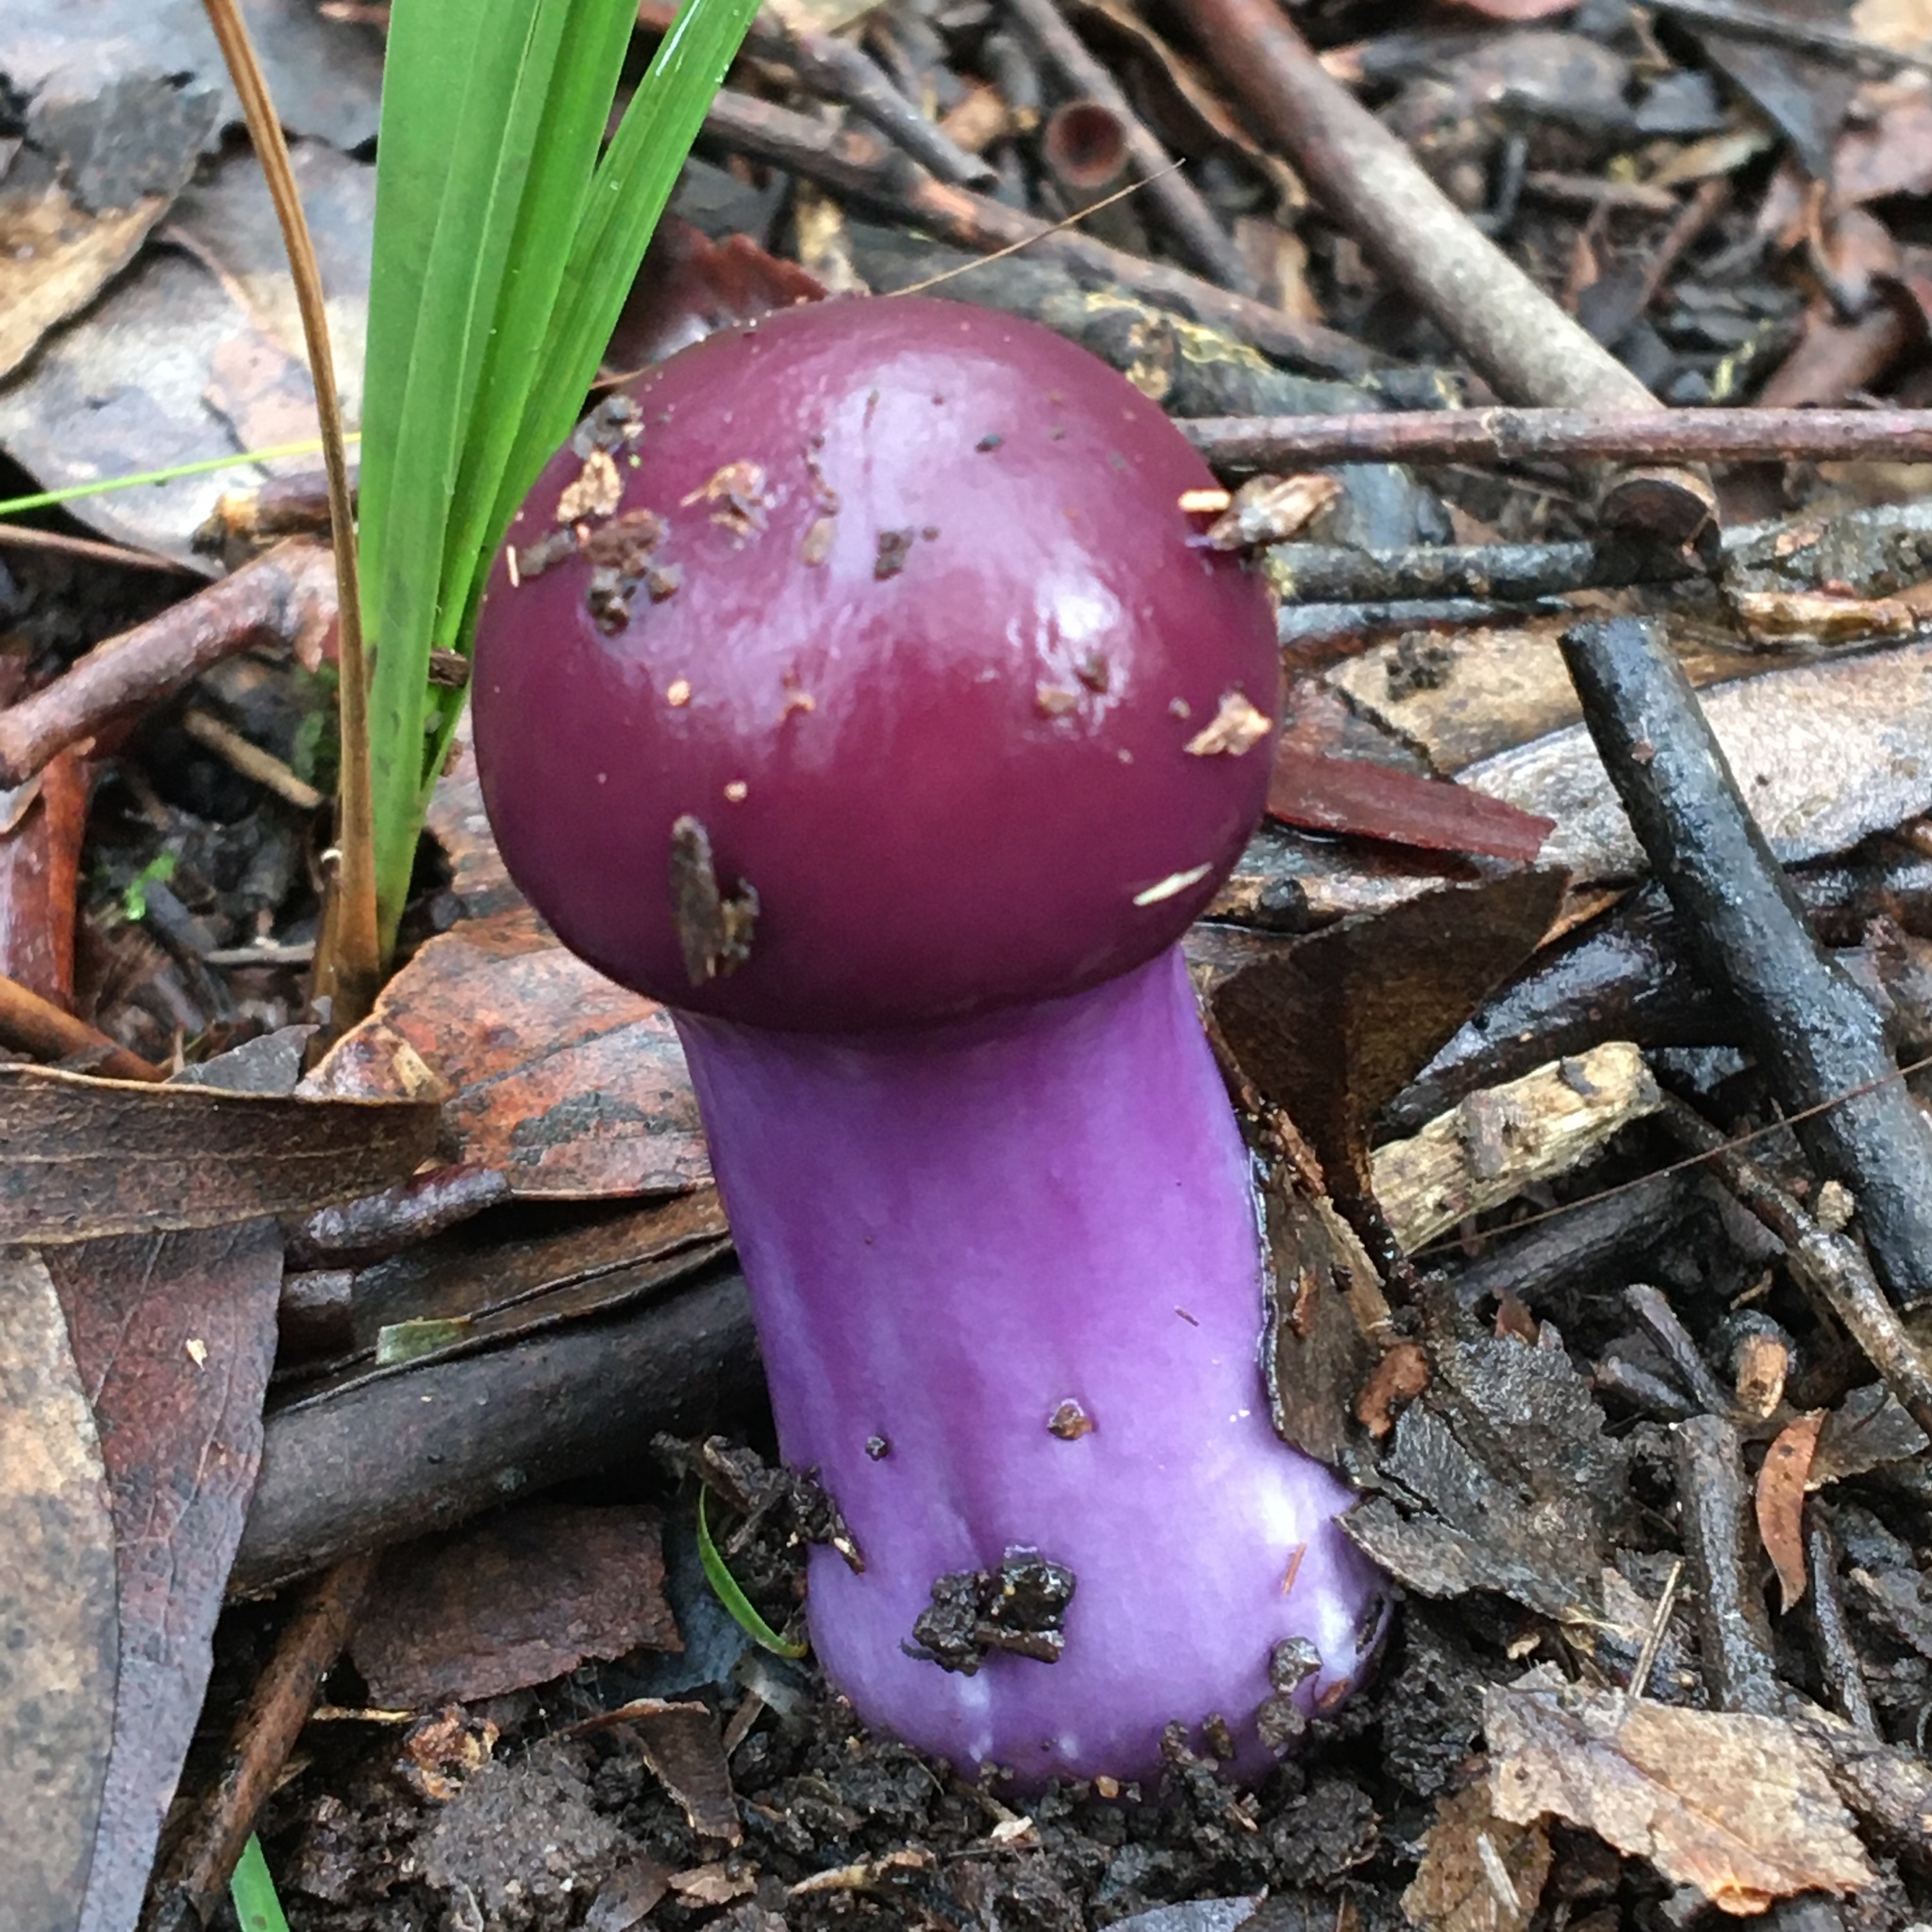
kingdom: Fungi
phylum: Basidiomycota
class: Agaricomycetes
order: Agaricales
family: Cortinariaceae
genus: Cortinarius
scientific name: Cortinarius archeri
